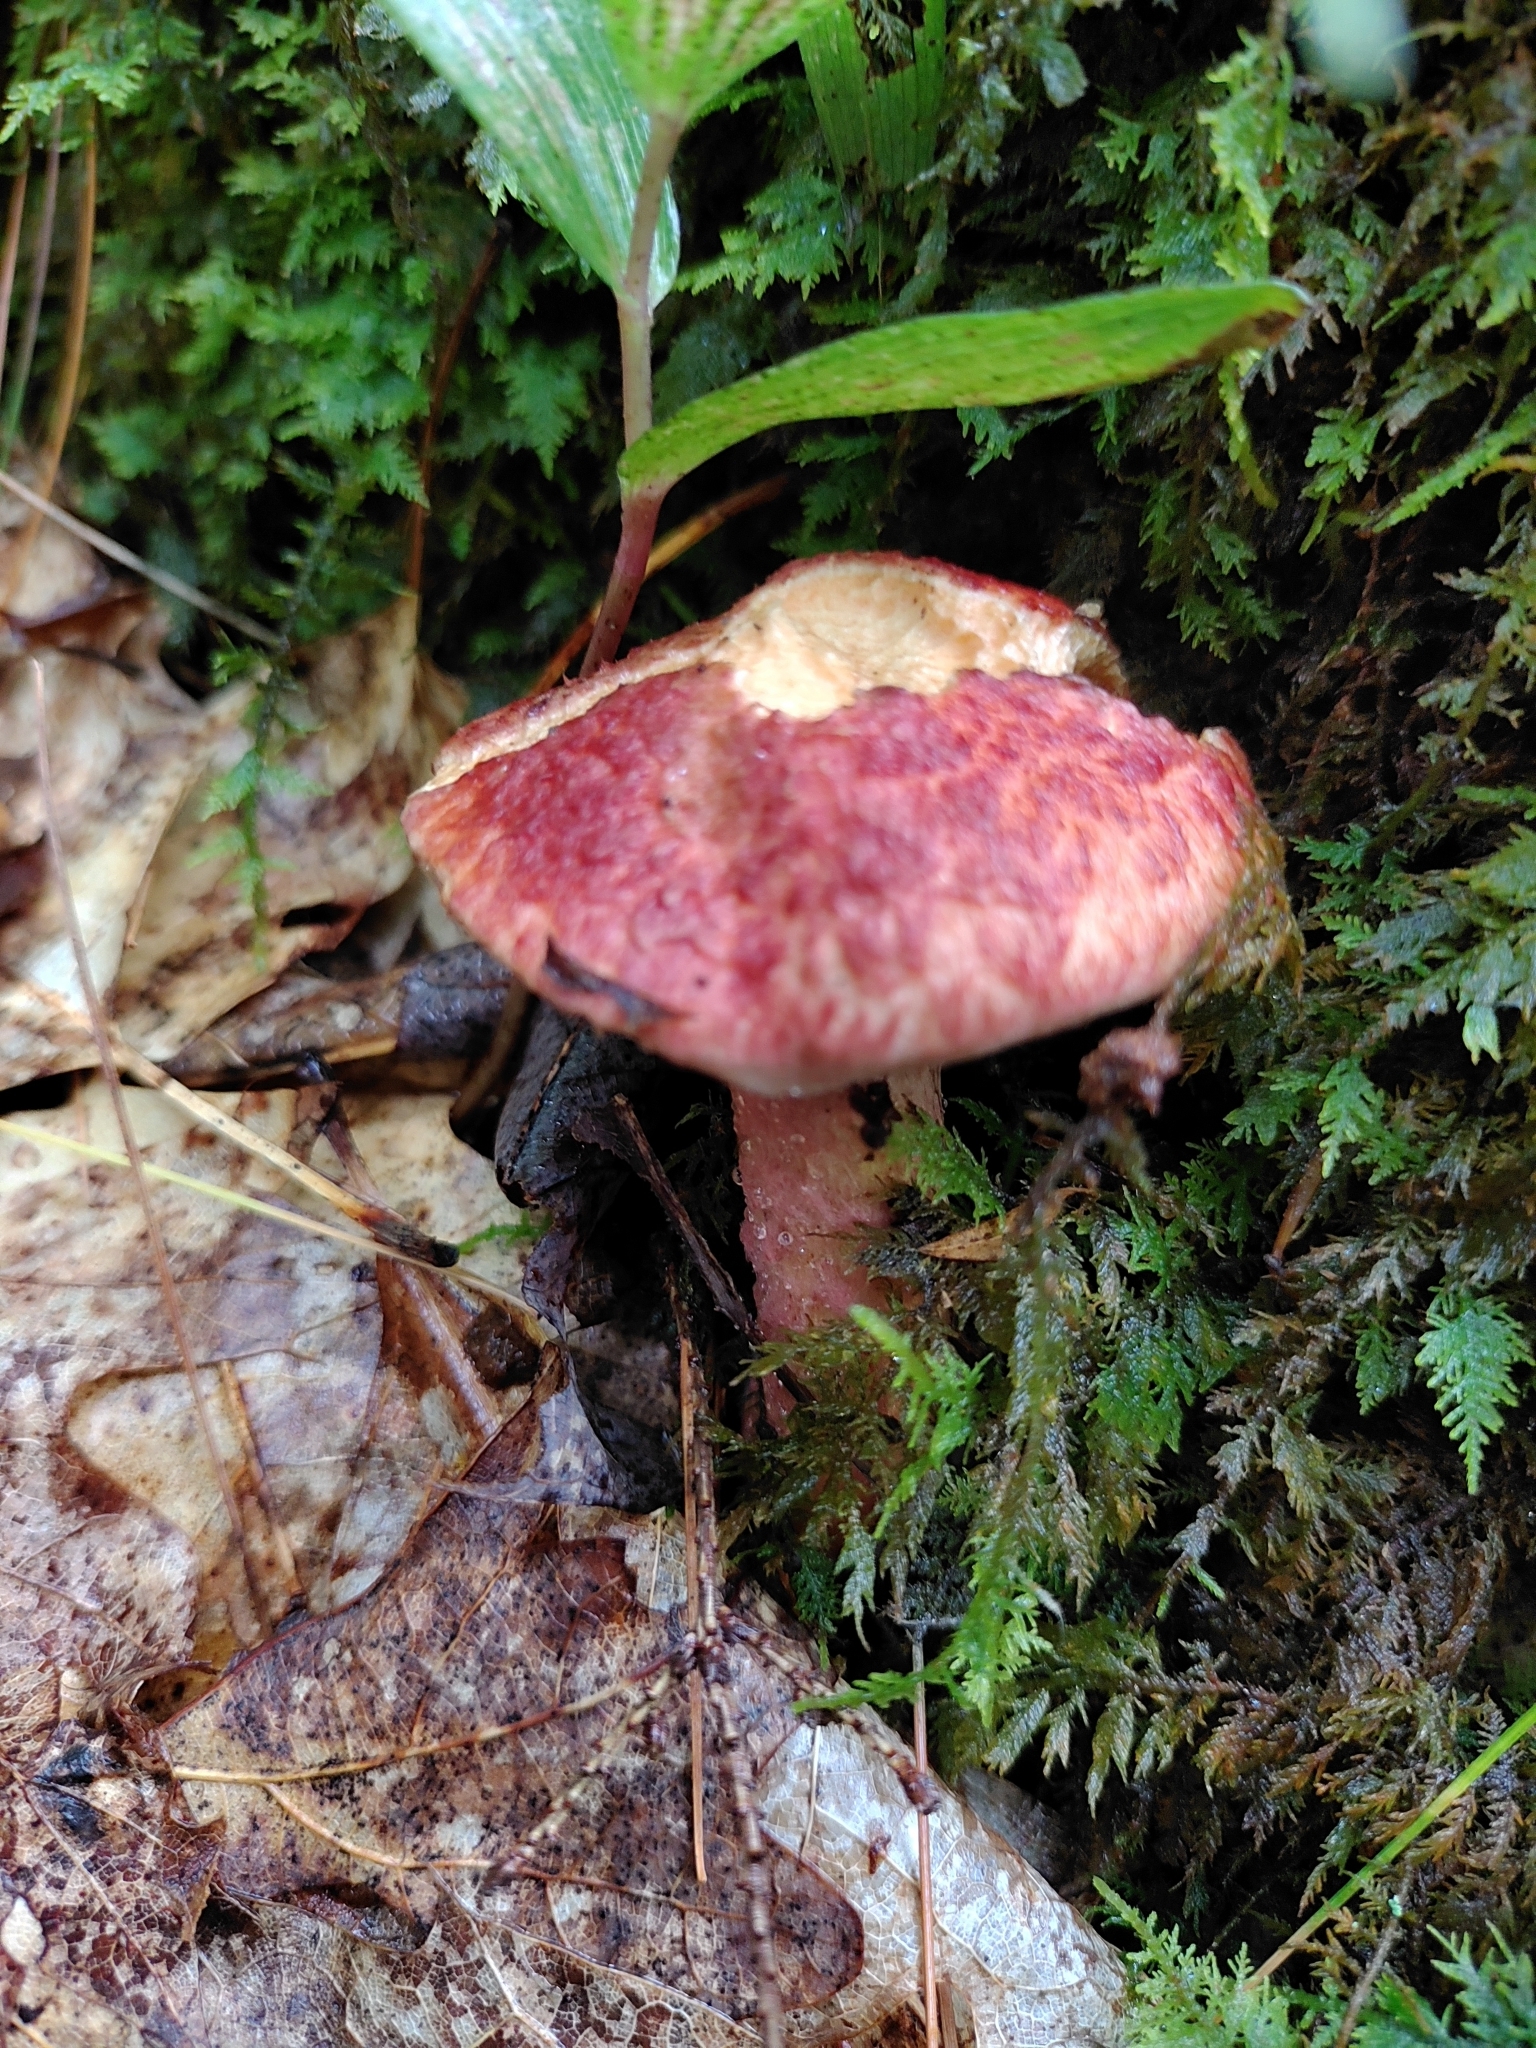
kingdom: Fungi
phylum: Basidiomycota
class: Agaricomycetes
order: Boletales
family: Suillaceae
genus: Suillus
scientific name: Suillus spraguei
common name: Painted suillus
